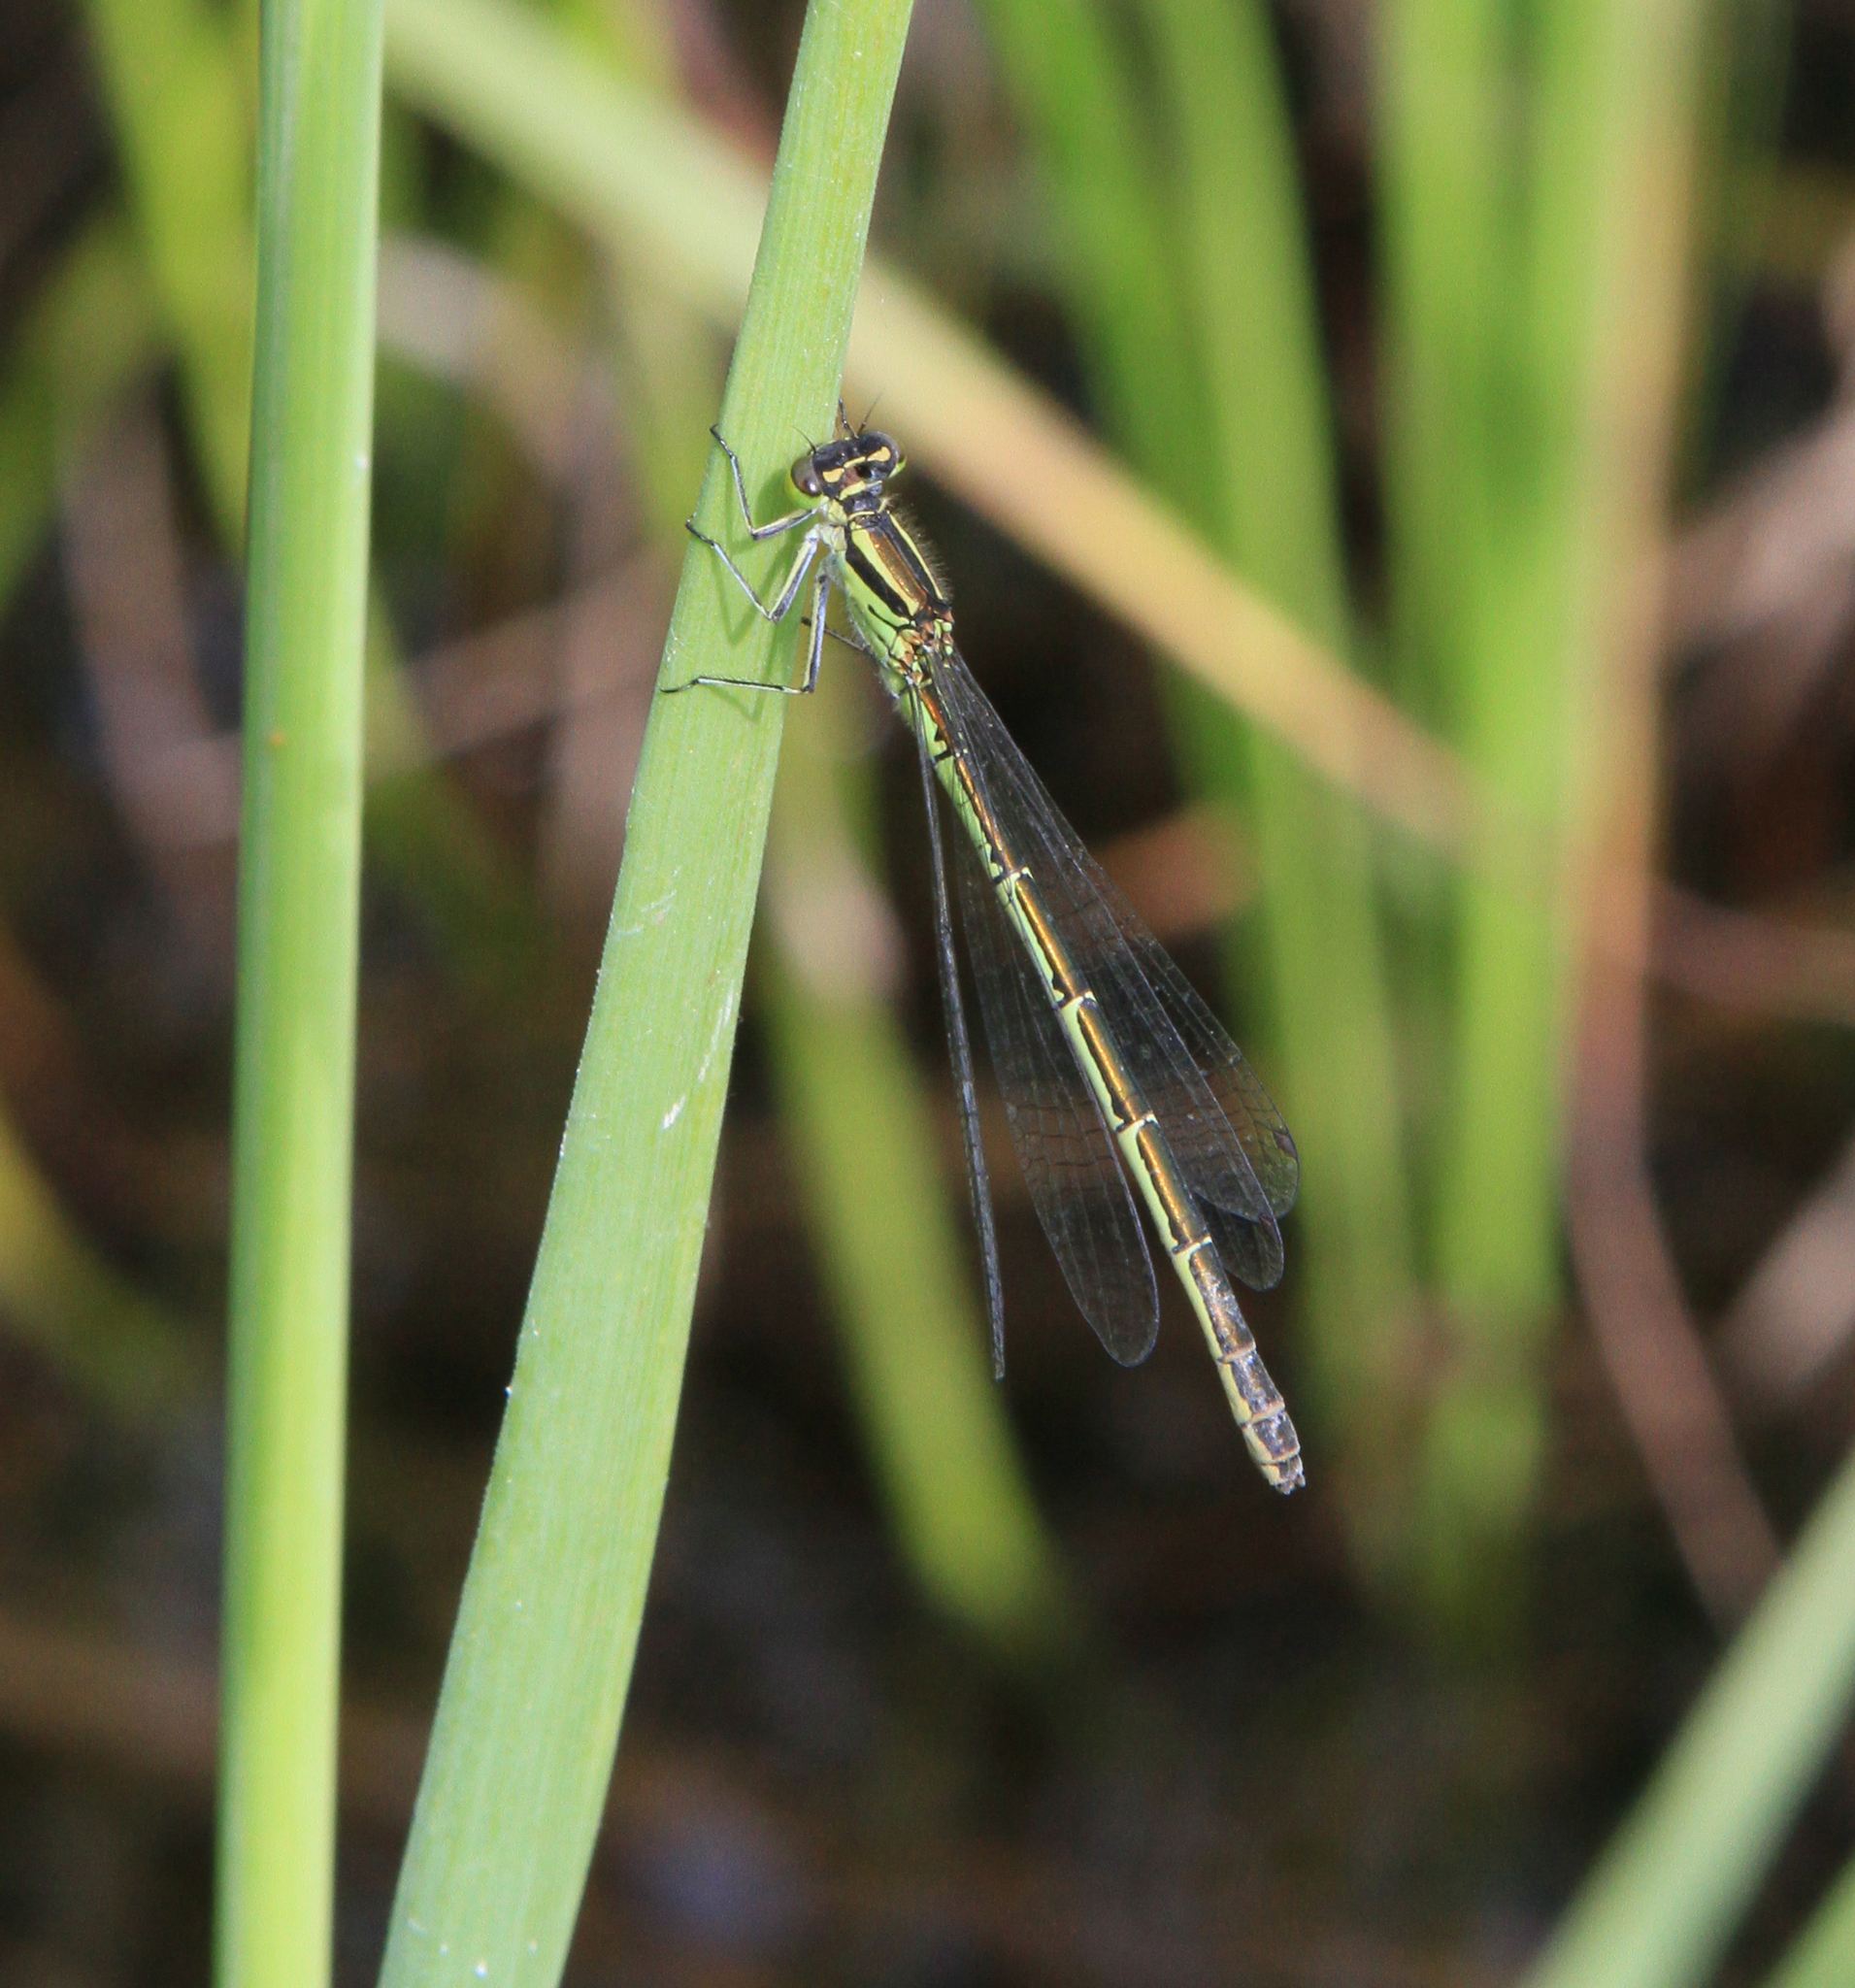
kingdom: Animalia
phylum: Arthropoda
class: Insecta
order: Odonata
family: Coenagrionidae
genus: Coenagrion
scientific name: Coenagrion hastulatum
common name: Spearhead bluet
